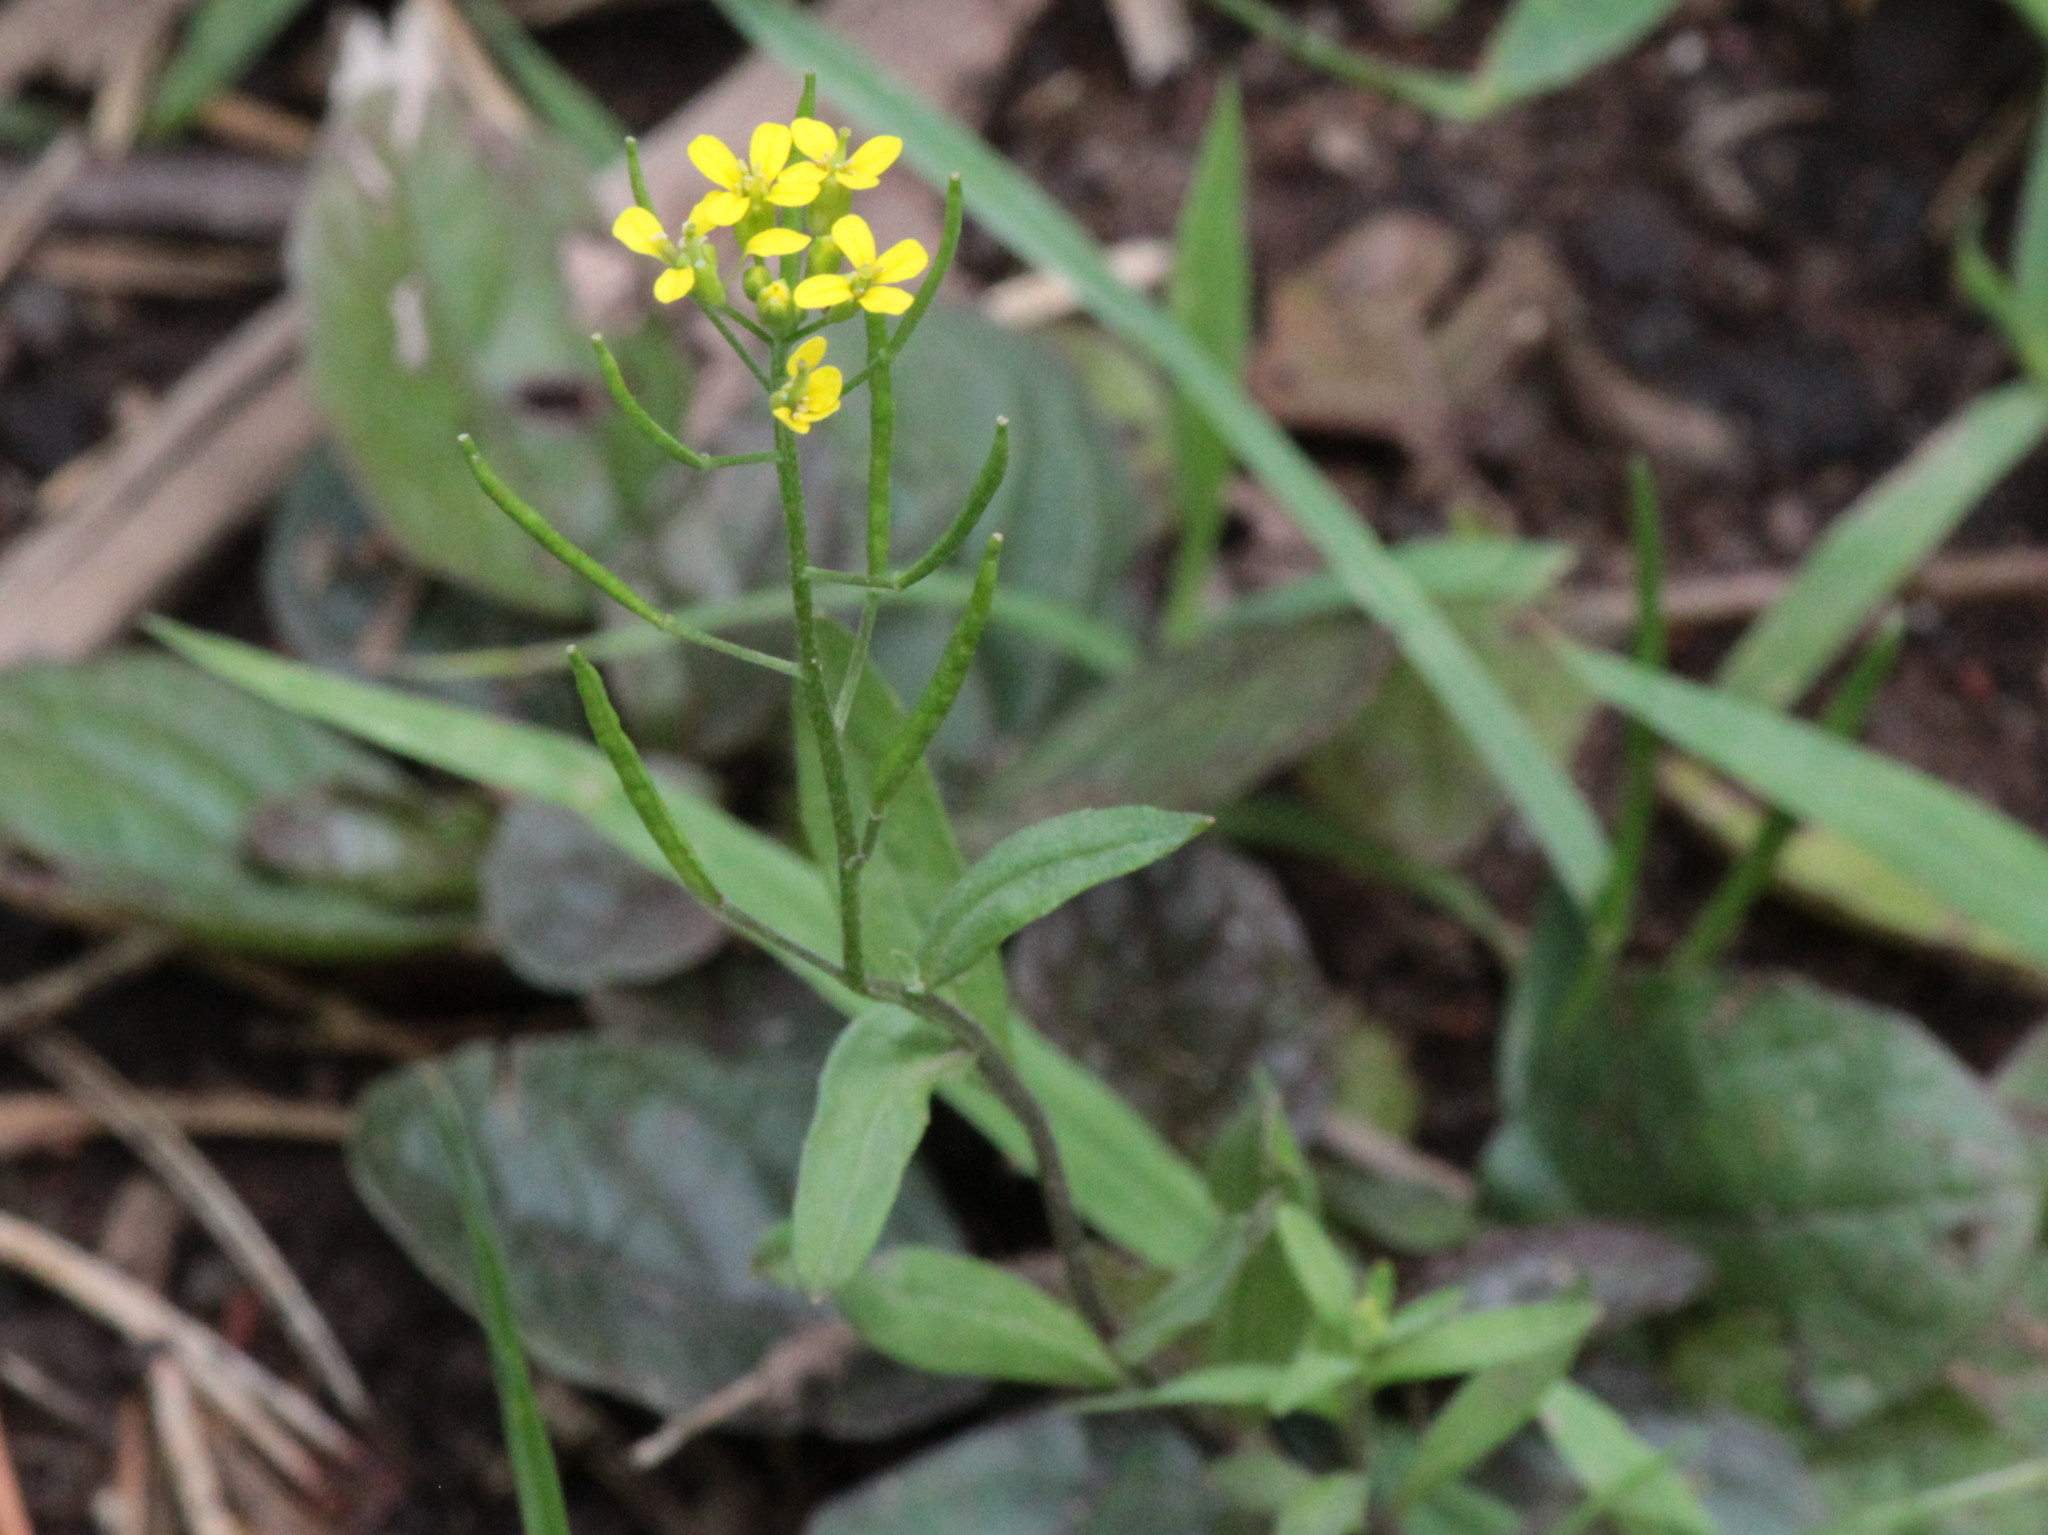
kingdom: Plantae
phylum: Tracheophyta
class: Magnoliopsida
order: Brassicales
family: Brassicaceae
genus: Erysimum
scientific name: Erysimum cheiranthoides
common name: Treacle mustard
